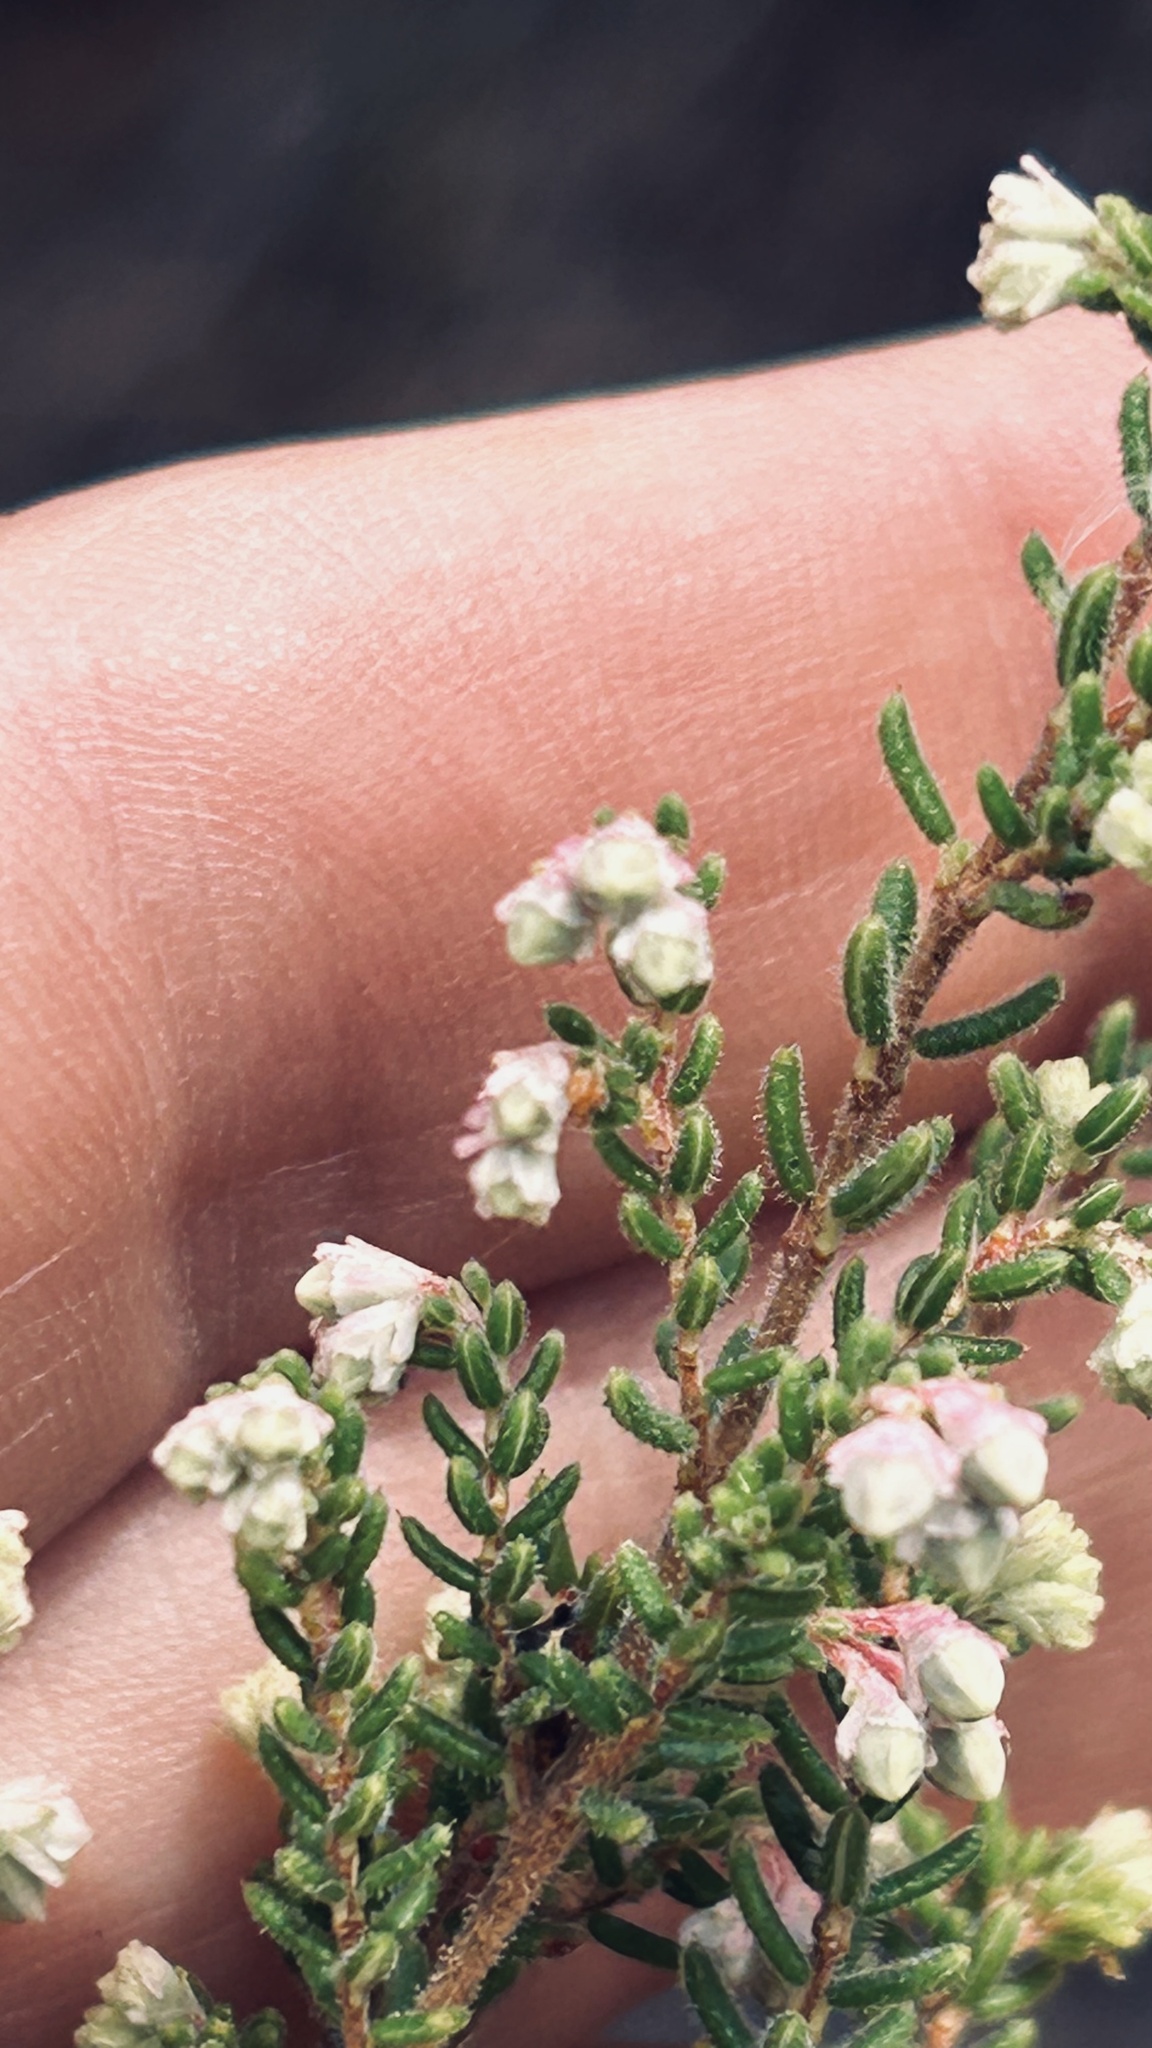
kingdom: Plantae
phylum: Tracheophyta
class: Magnoliopsida
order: Ericales
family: Ericaceae
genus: Erica
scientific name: Erica melanthera
